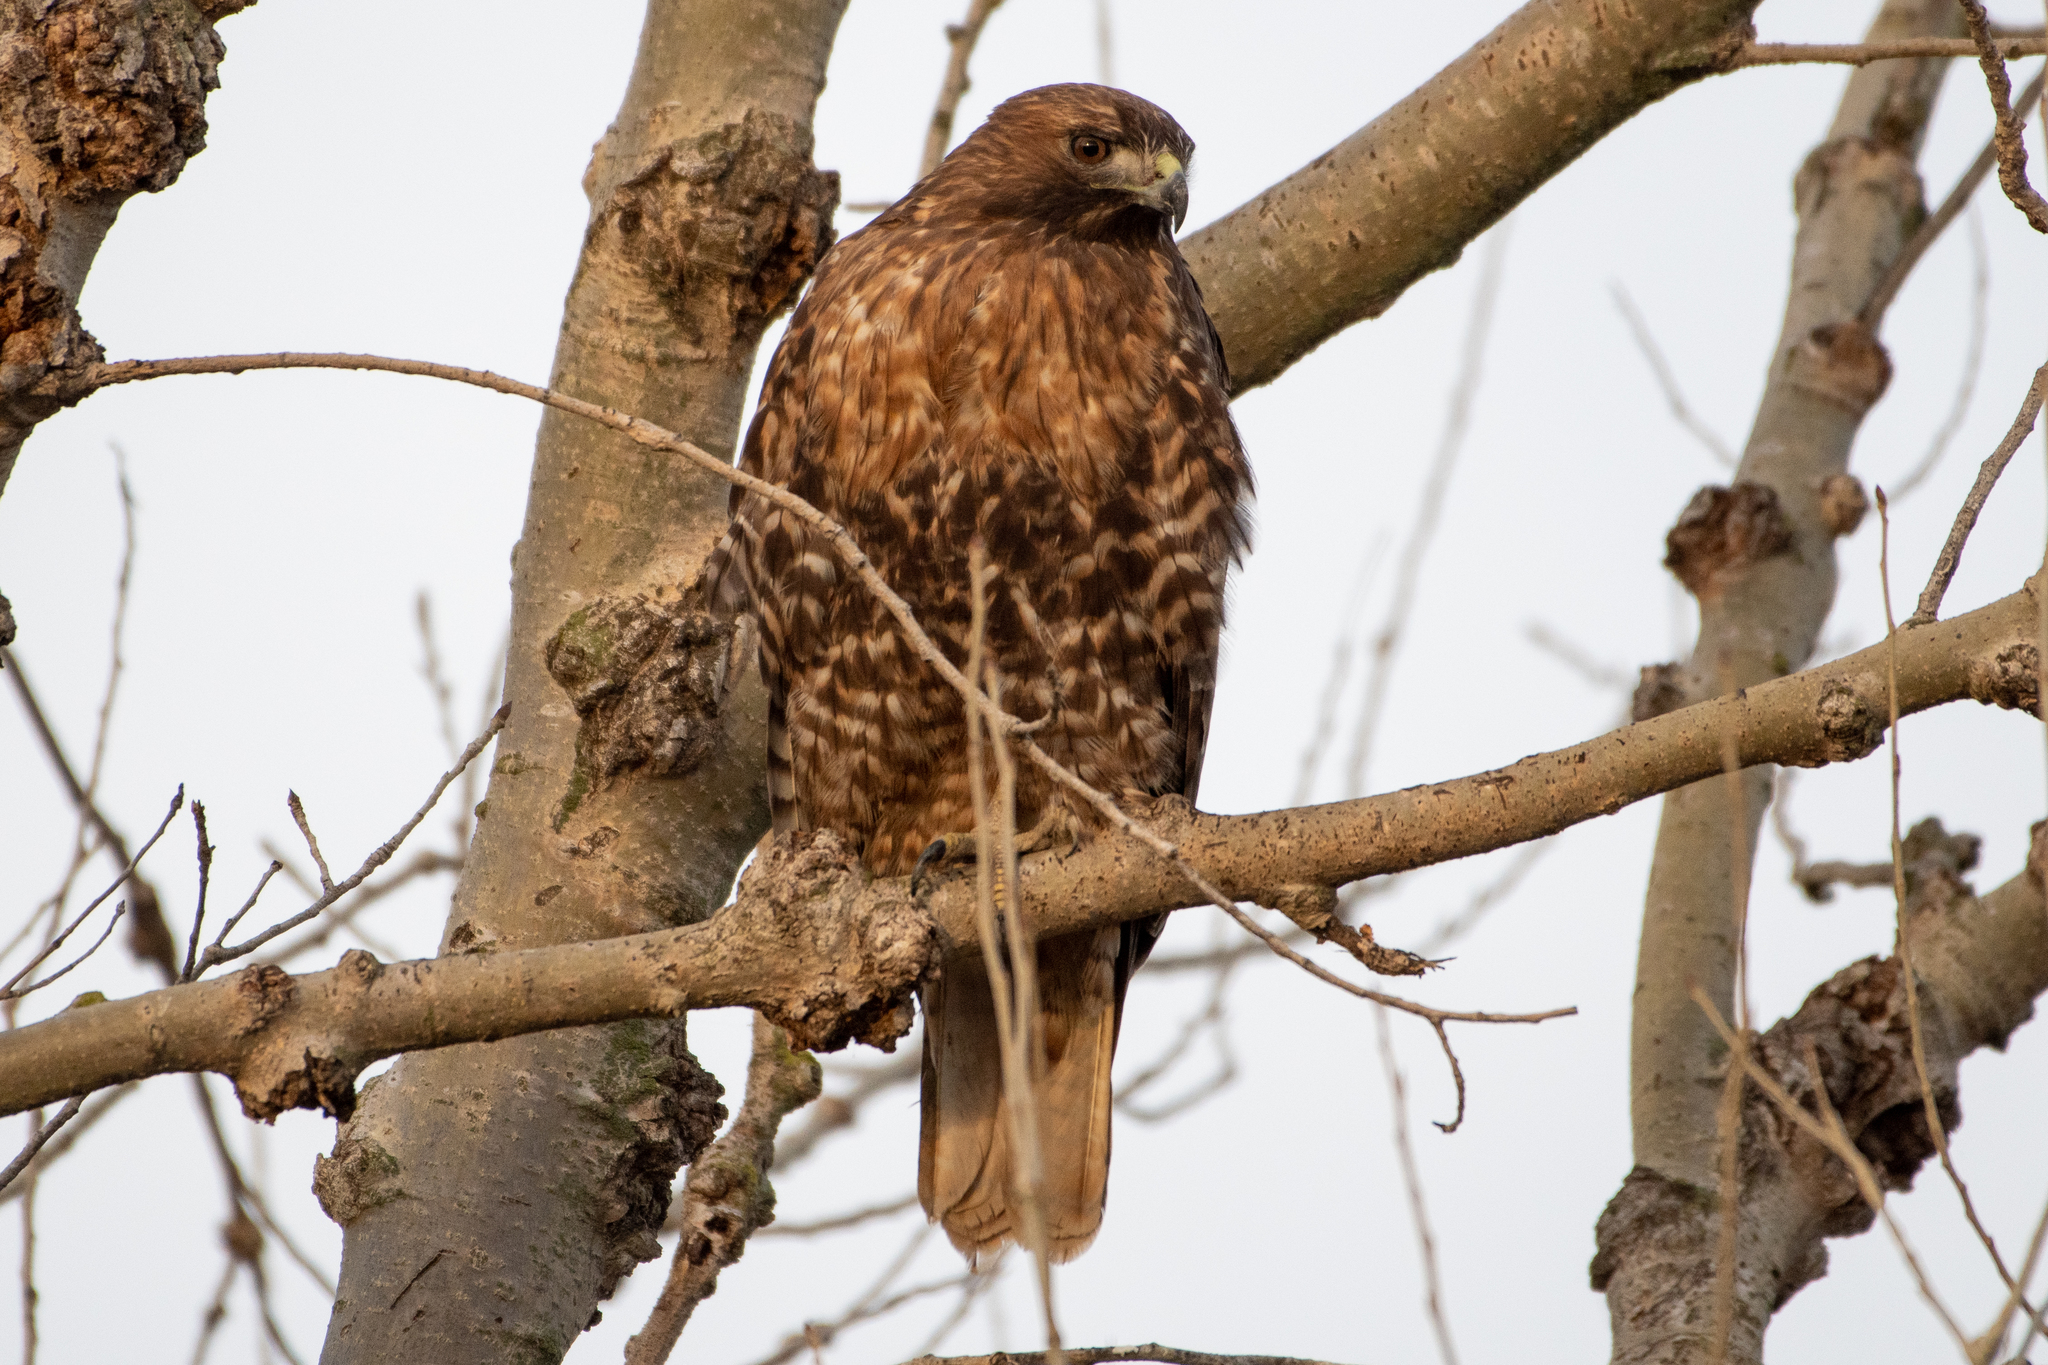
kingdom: Animalia
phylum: Chordata
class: Aves
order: Accipitriformes
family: Accipitridae
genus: Buteo
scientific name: Buteo jamaicensis
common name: Red-tailed hawk
